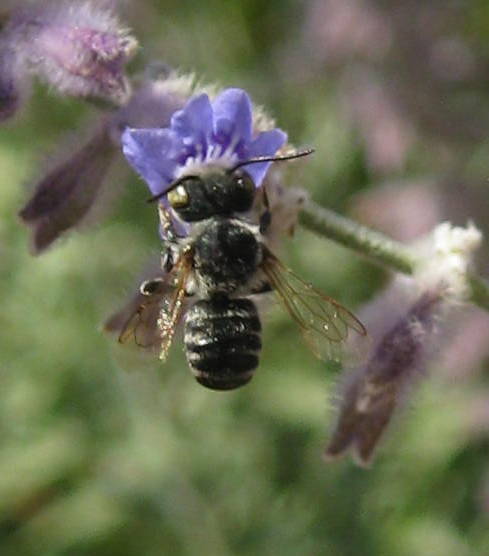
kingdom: Animalia
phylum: Arthropoda
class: Insecta
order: Hymenoptera
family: Megachilidae
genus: Megachile
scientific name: Megachile rotundata
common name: Alfalfa leafcutting bee
